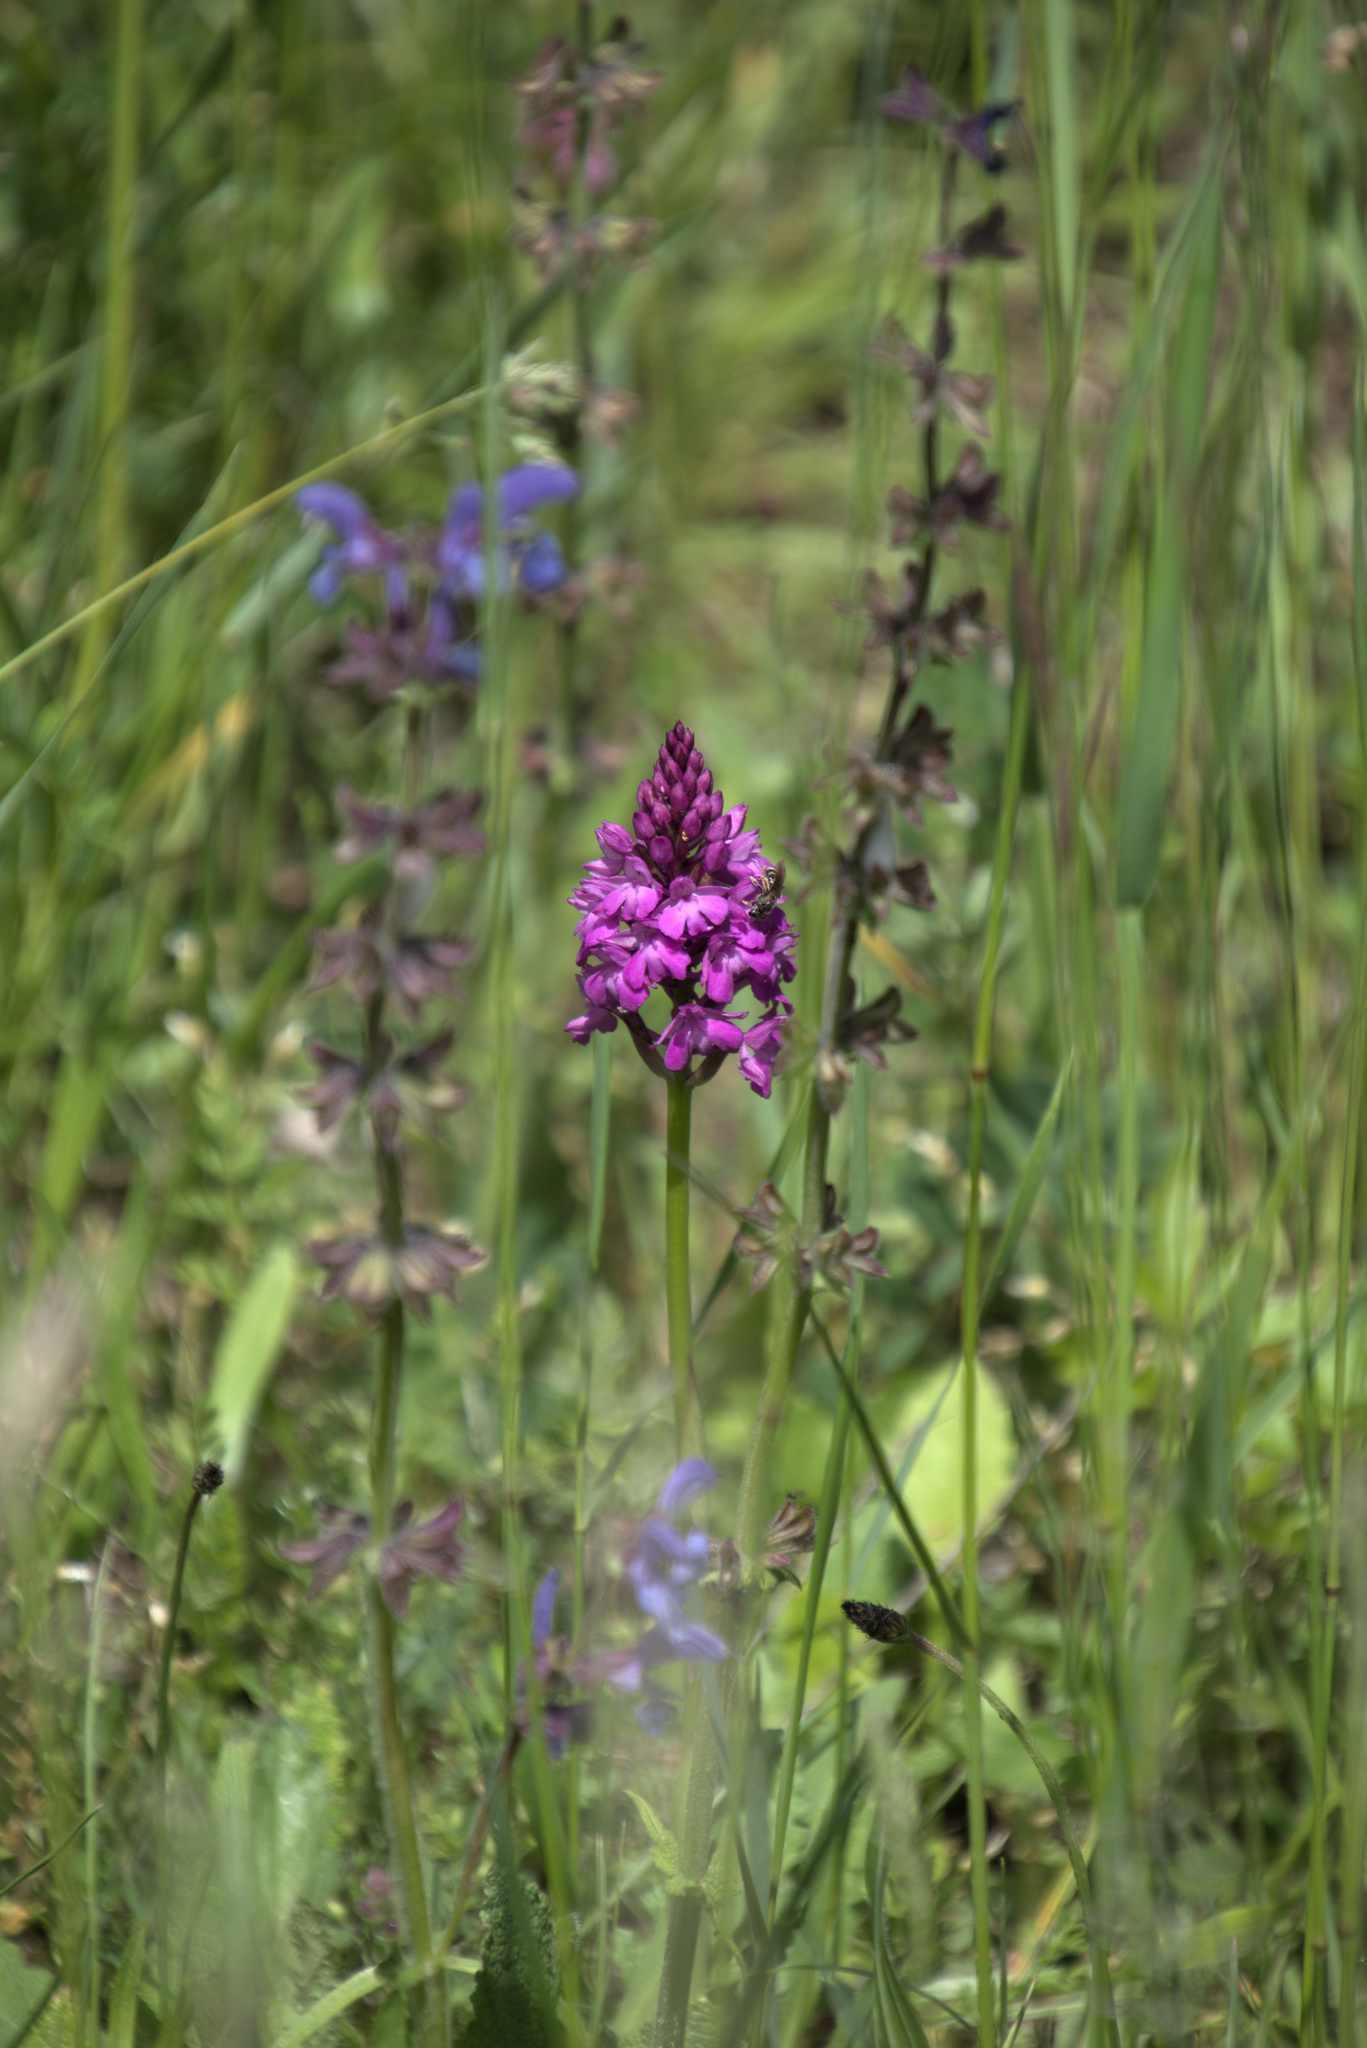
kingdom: Plantae
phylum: Tracheophyta
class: Liliopsida
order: Asparagales
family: Orchidaceae
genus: Anacamptis
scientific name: Anacamptis pyramidalis
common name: Pyramidal orchid
